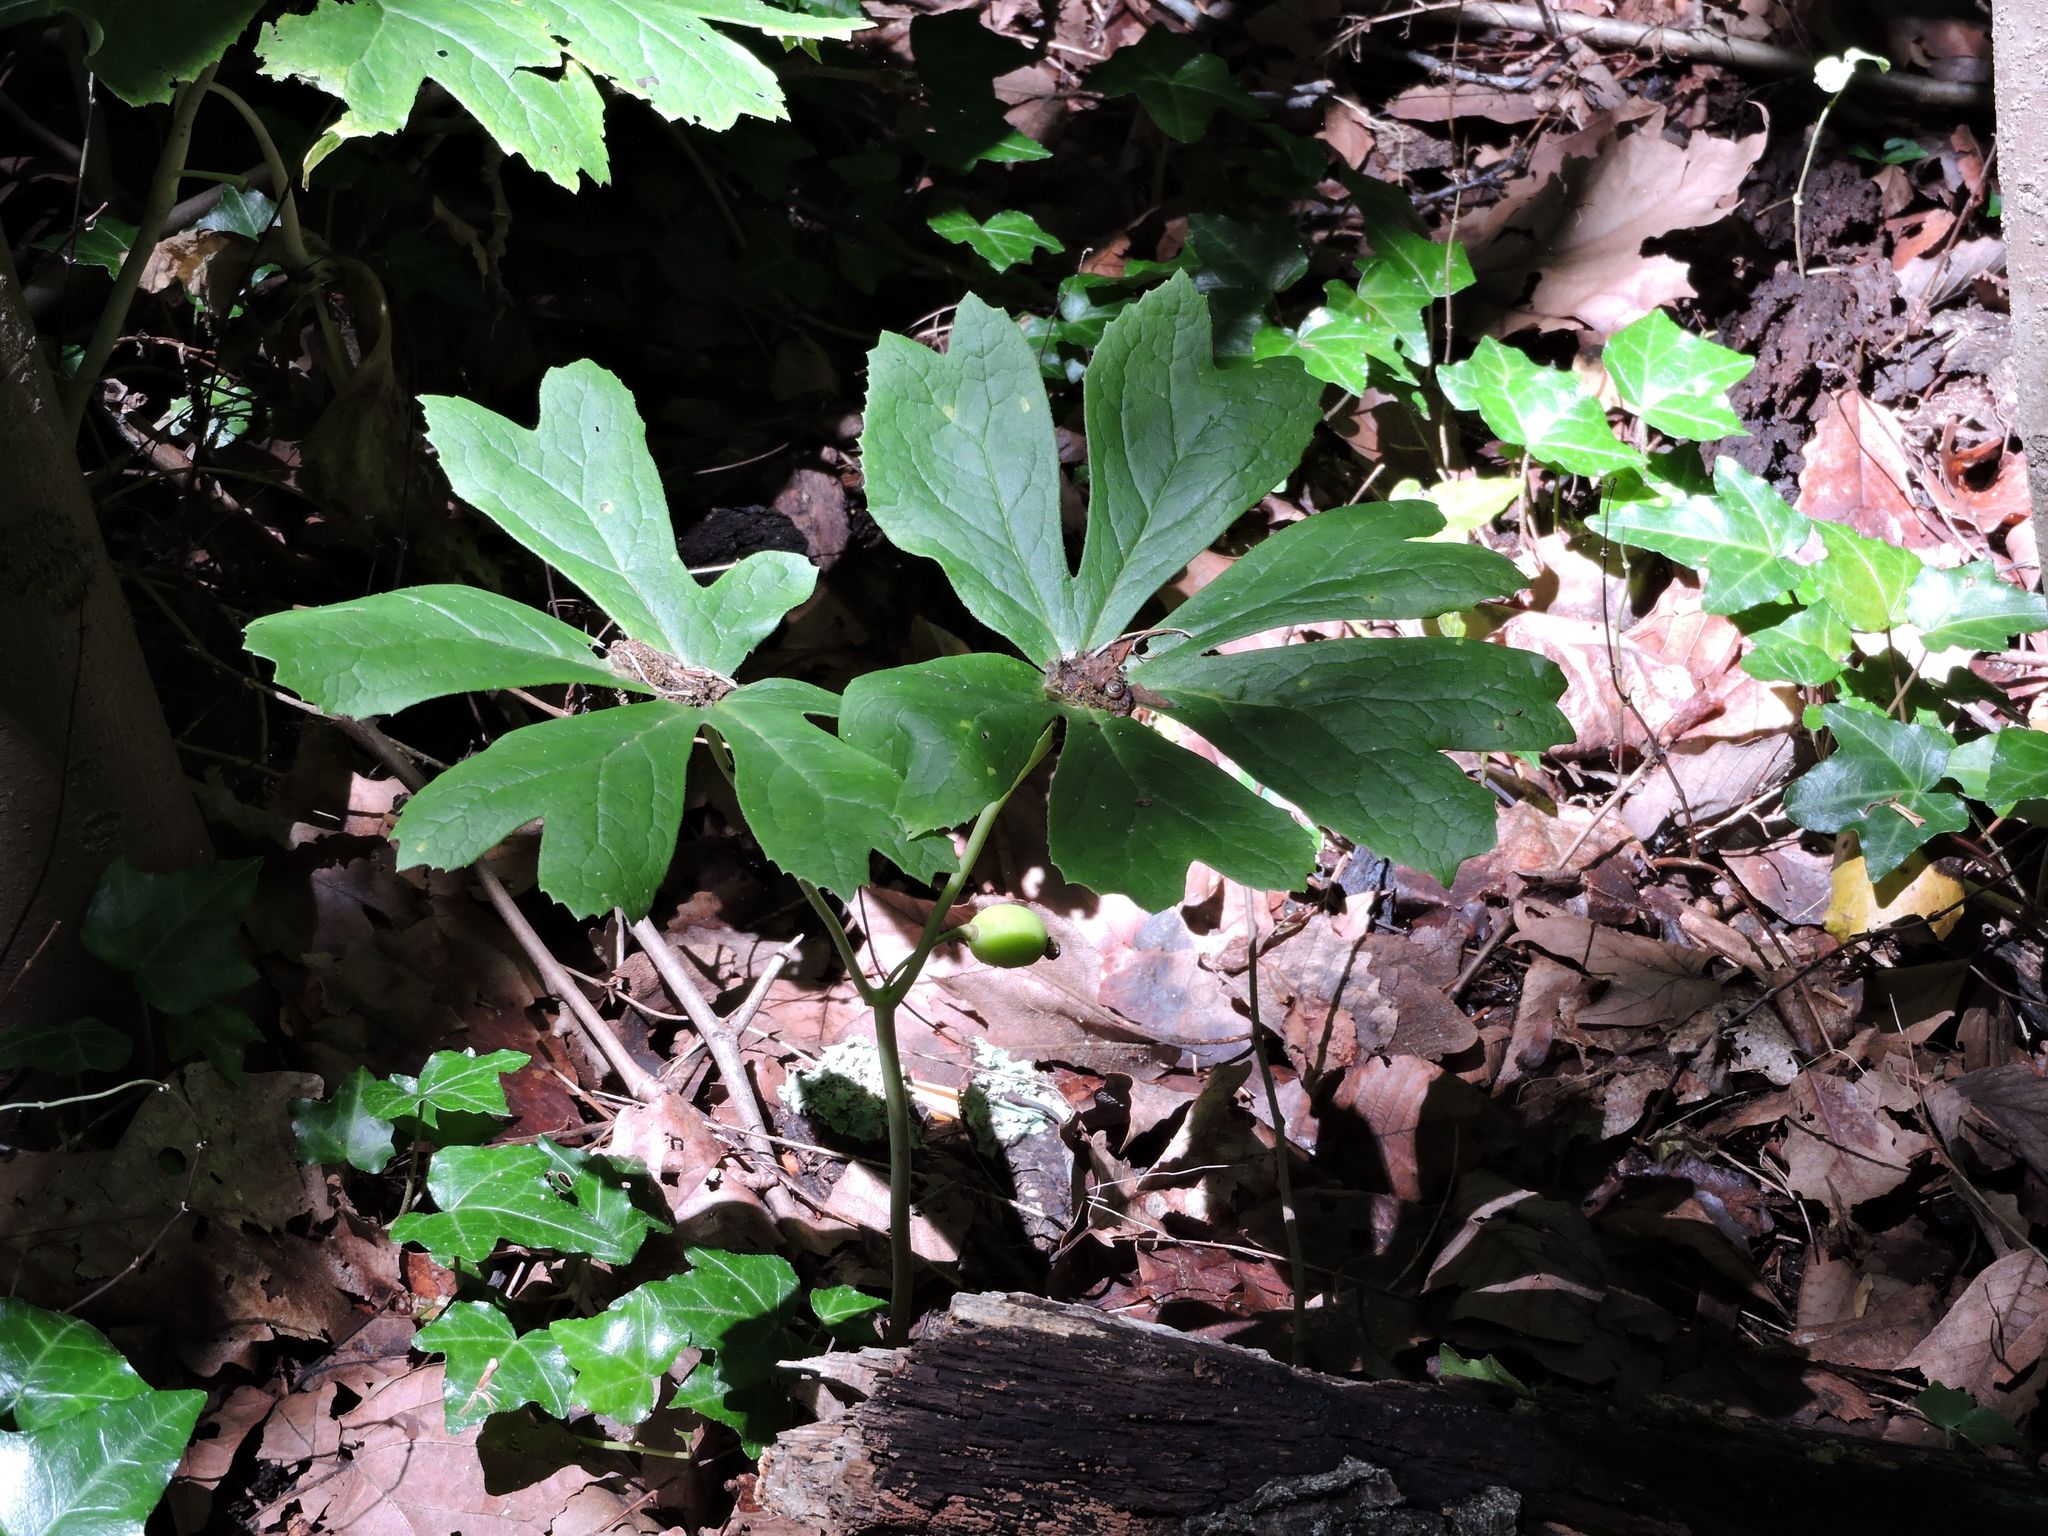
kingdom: Plantae
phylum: Tracheophyta
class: Magnoliopsida
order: Ranunculales
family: Berberidaceae
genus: Podophyllum
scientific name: Podophyllum peltatum
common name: Wild mandrake
